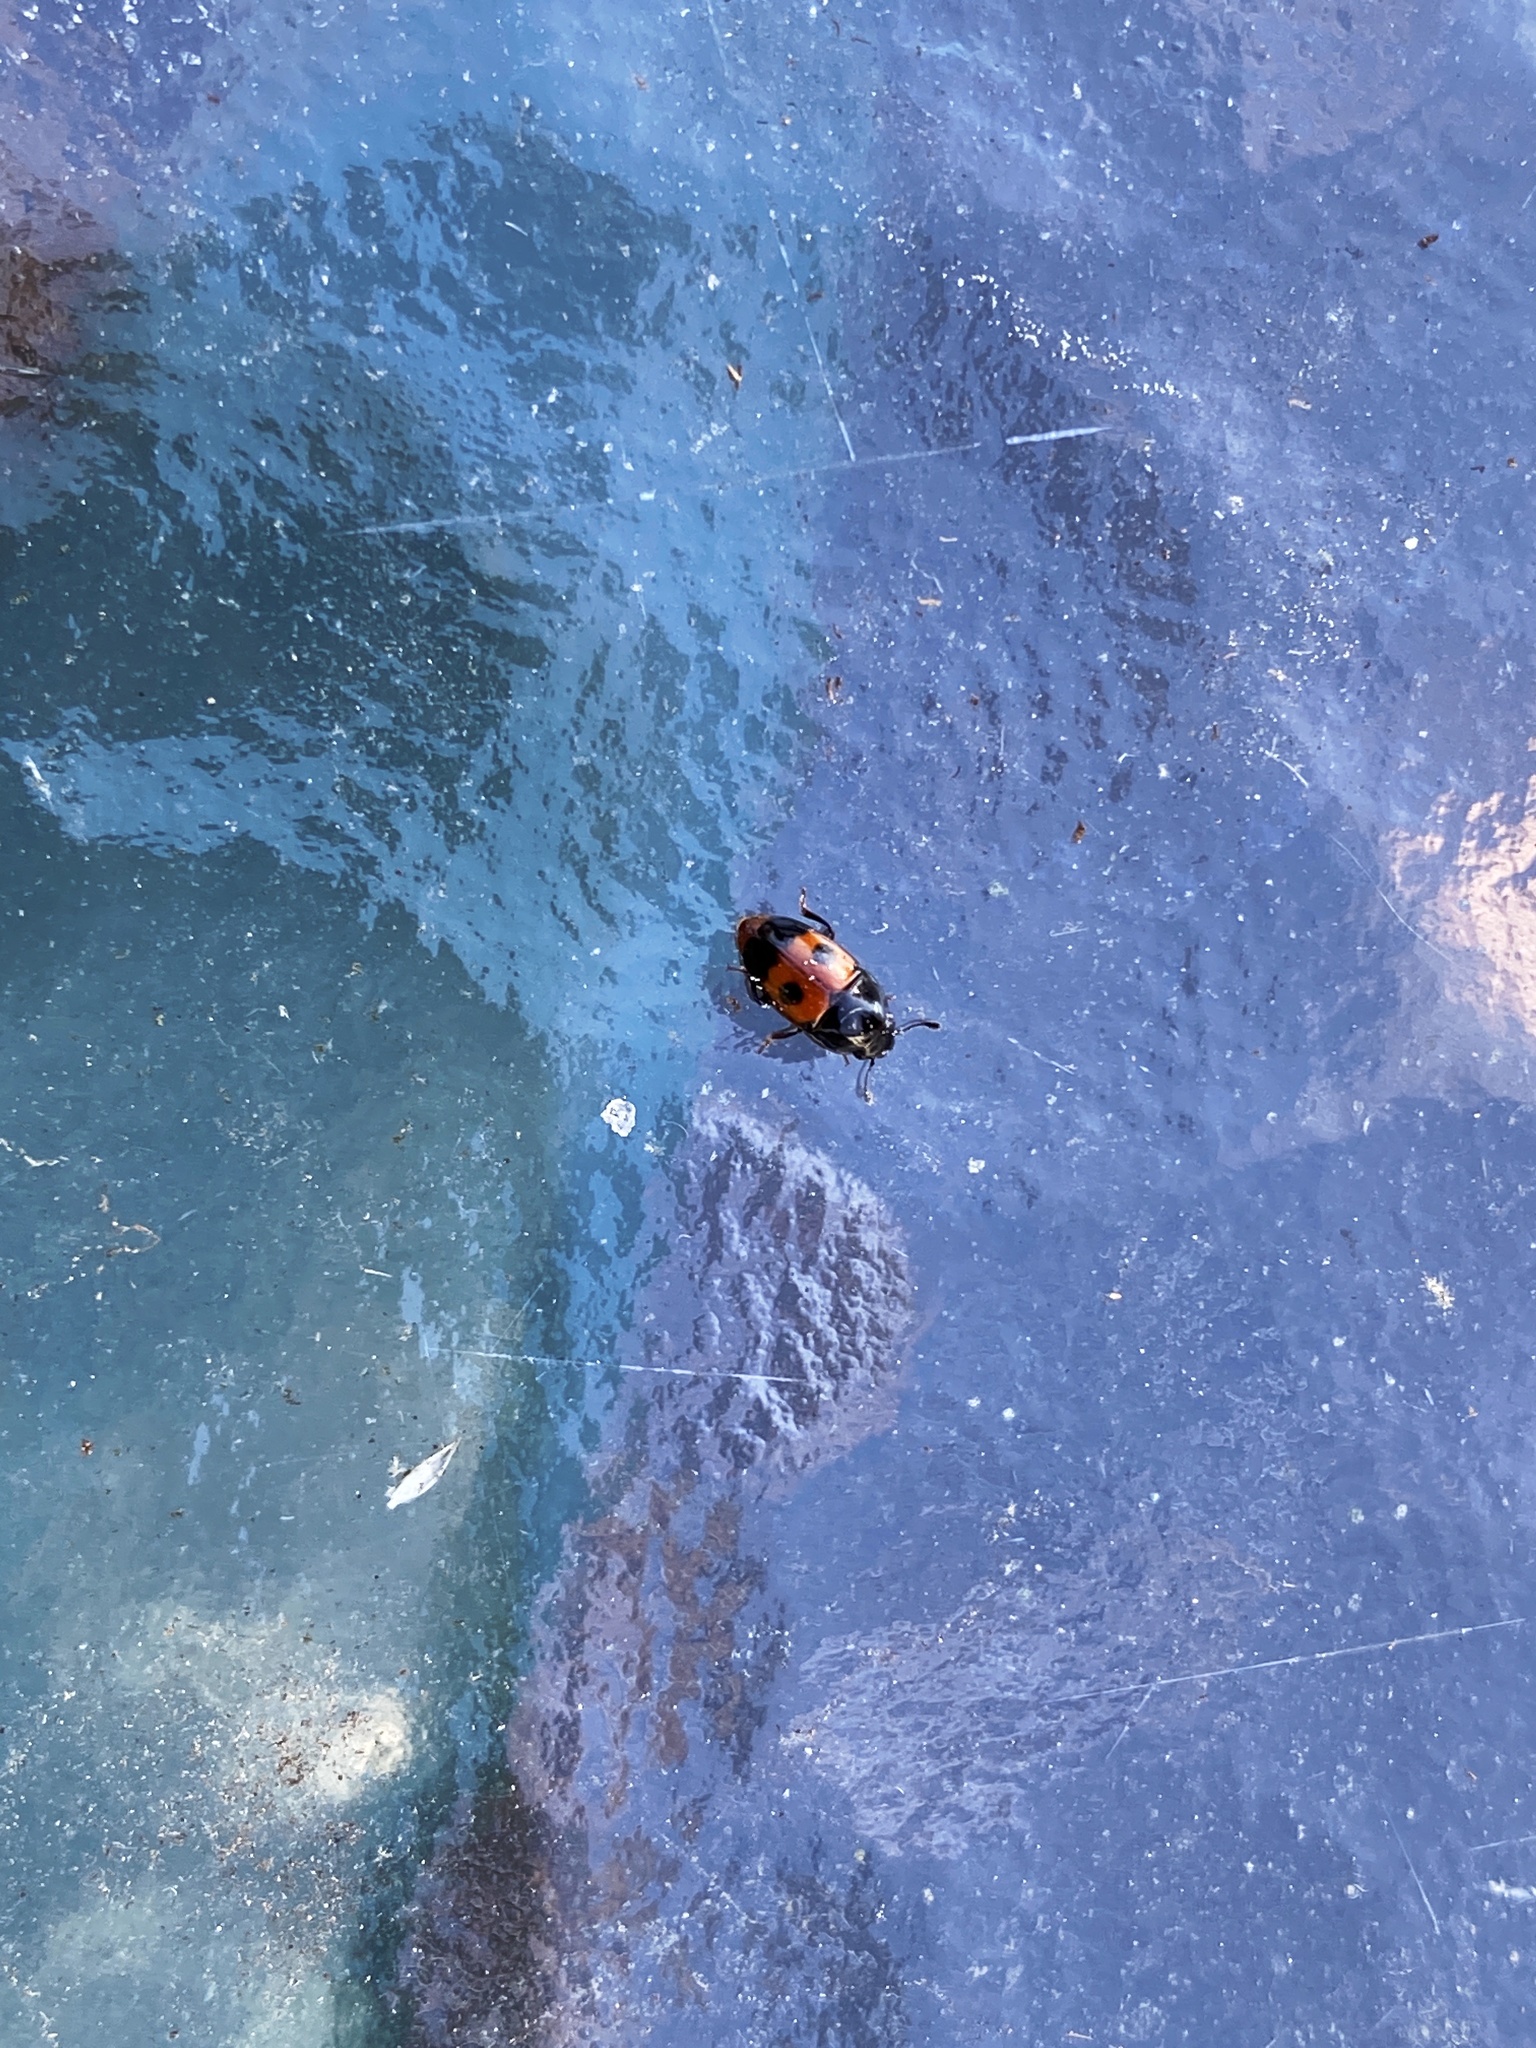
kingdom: Animalia
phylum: Arthropoda
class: Insecta
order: Coleoptera
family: Nitidulidae
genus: Glischrochilus
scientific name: Glischrochilus sanguinolentus
